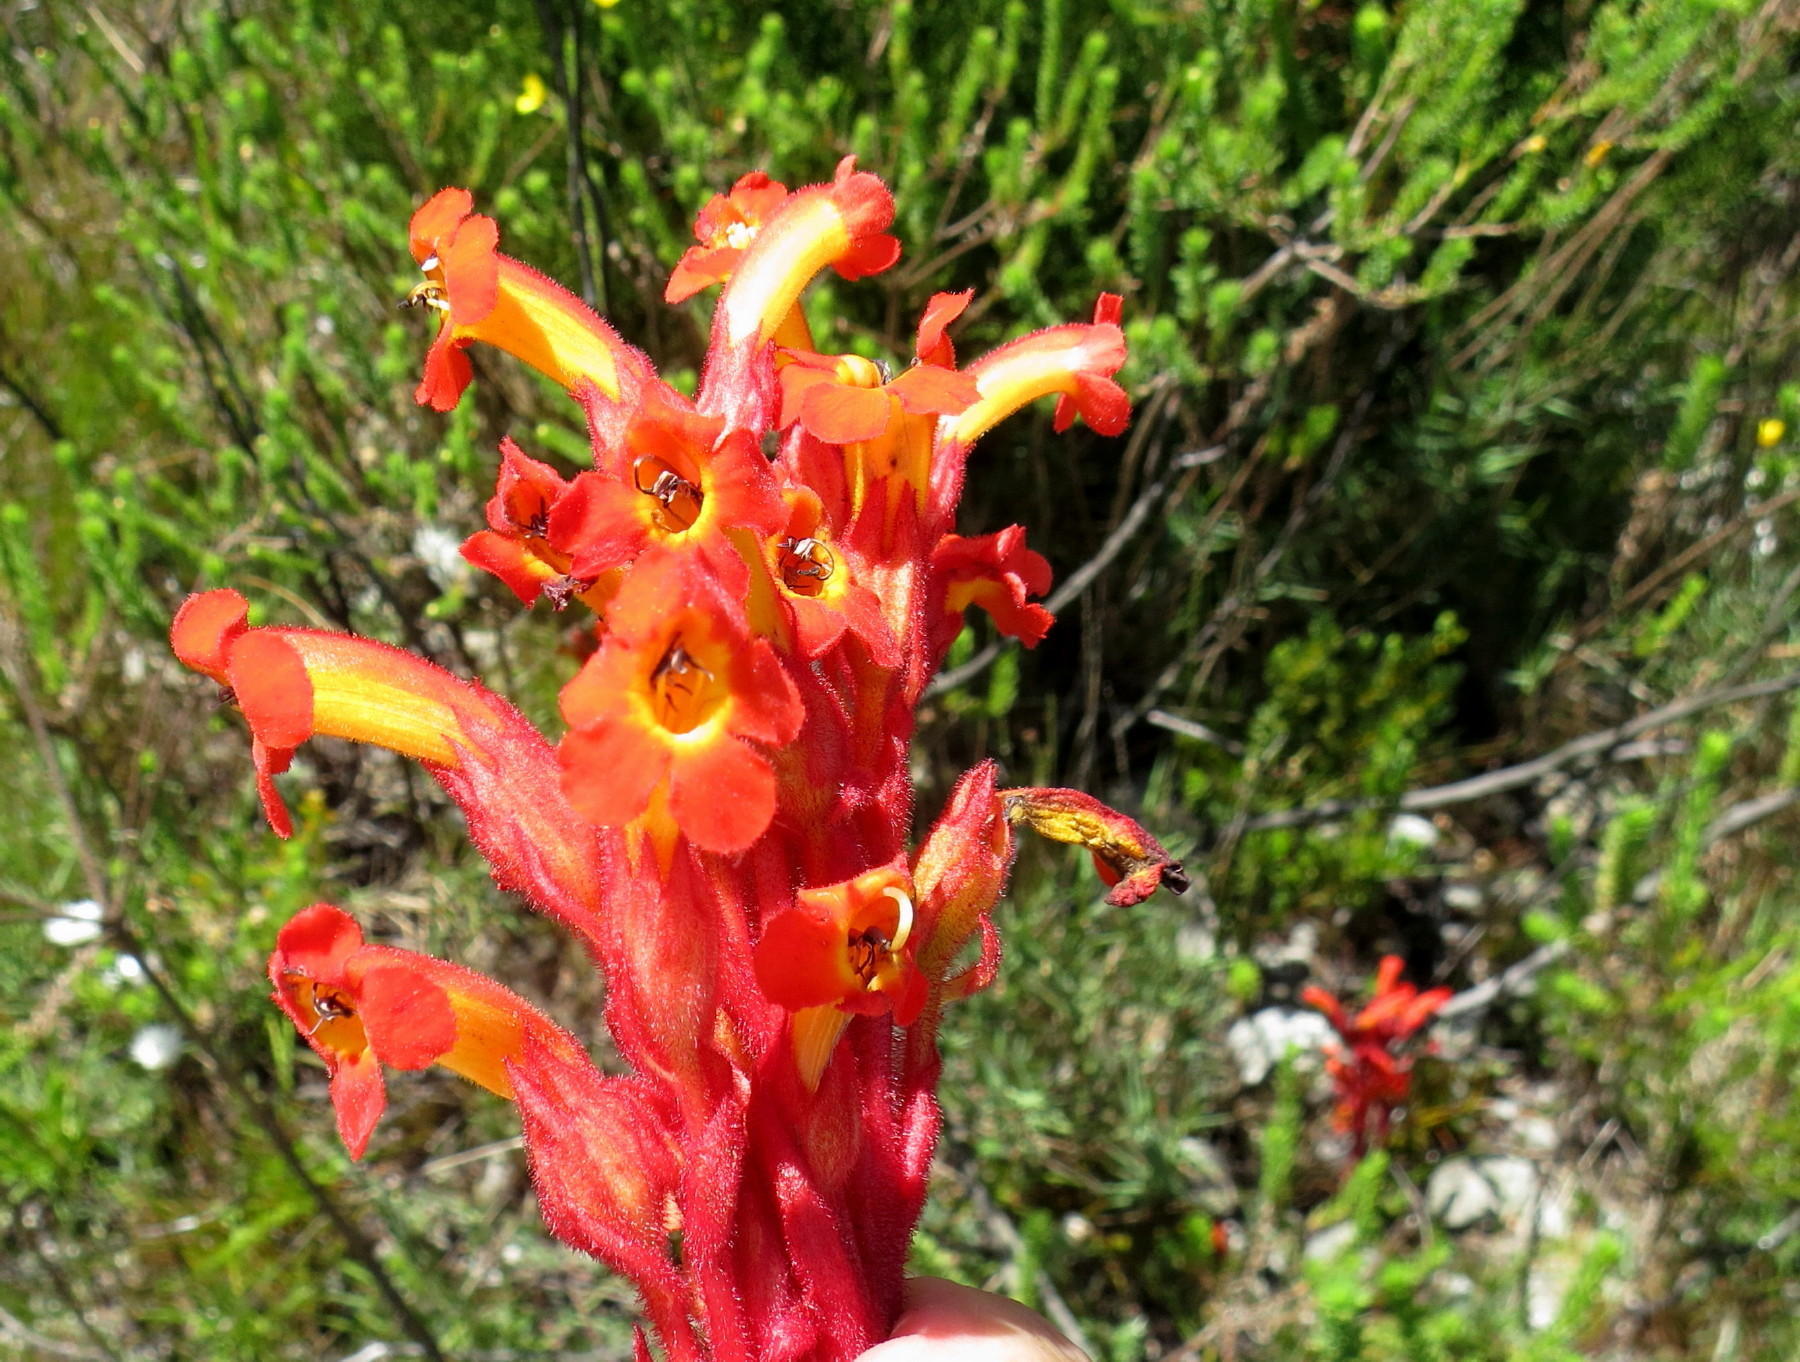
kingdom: Plantae
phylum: Tracheophyta
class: Magnoliopsida
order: Lamiales
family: Orobanchaceae
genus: Harveya
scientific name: Harveya bolusii
